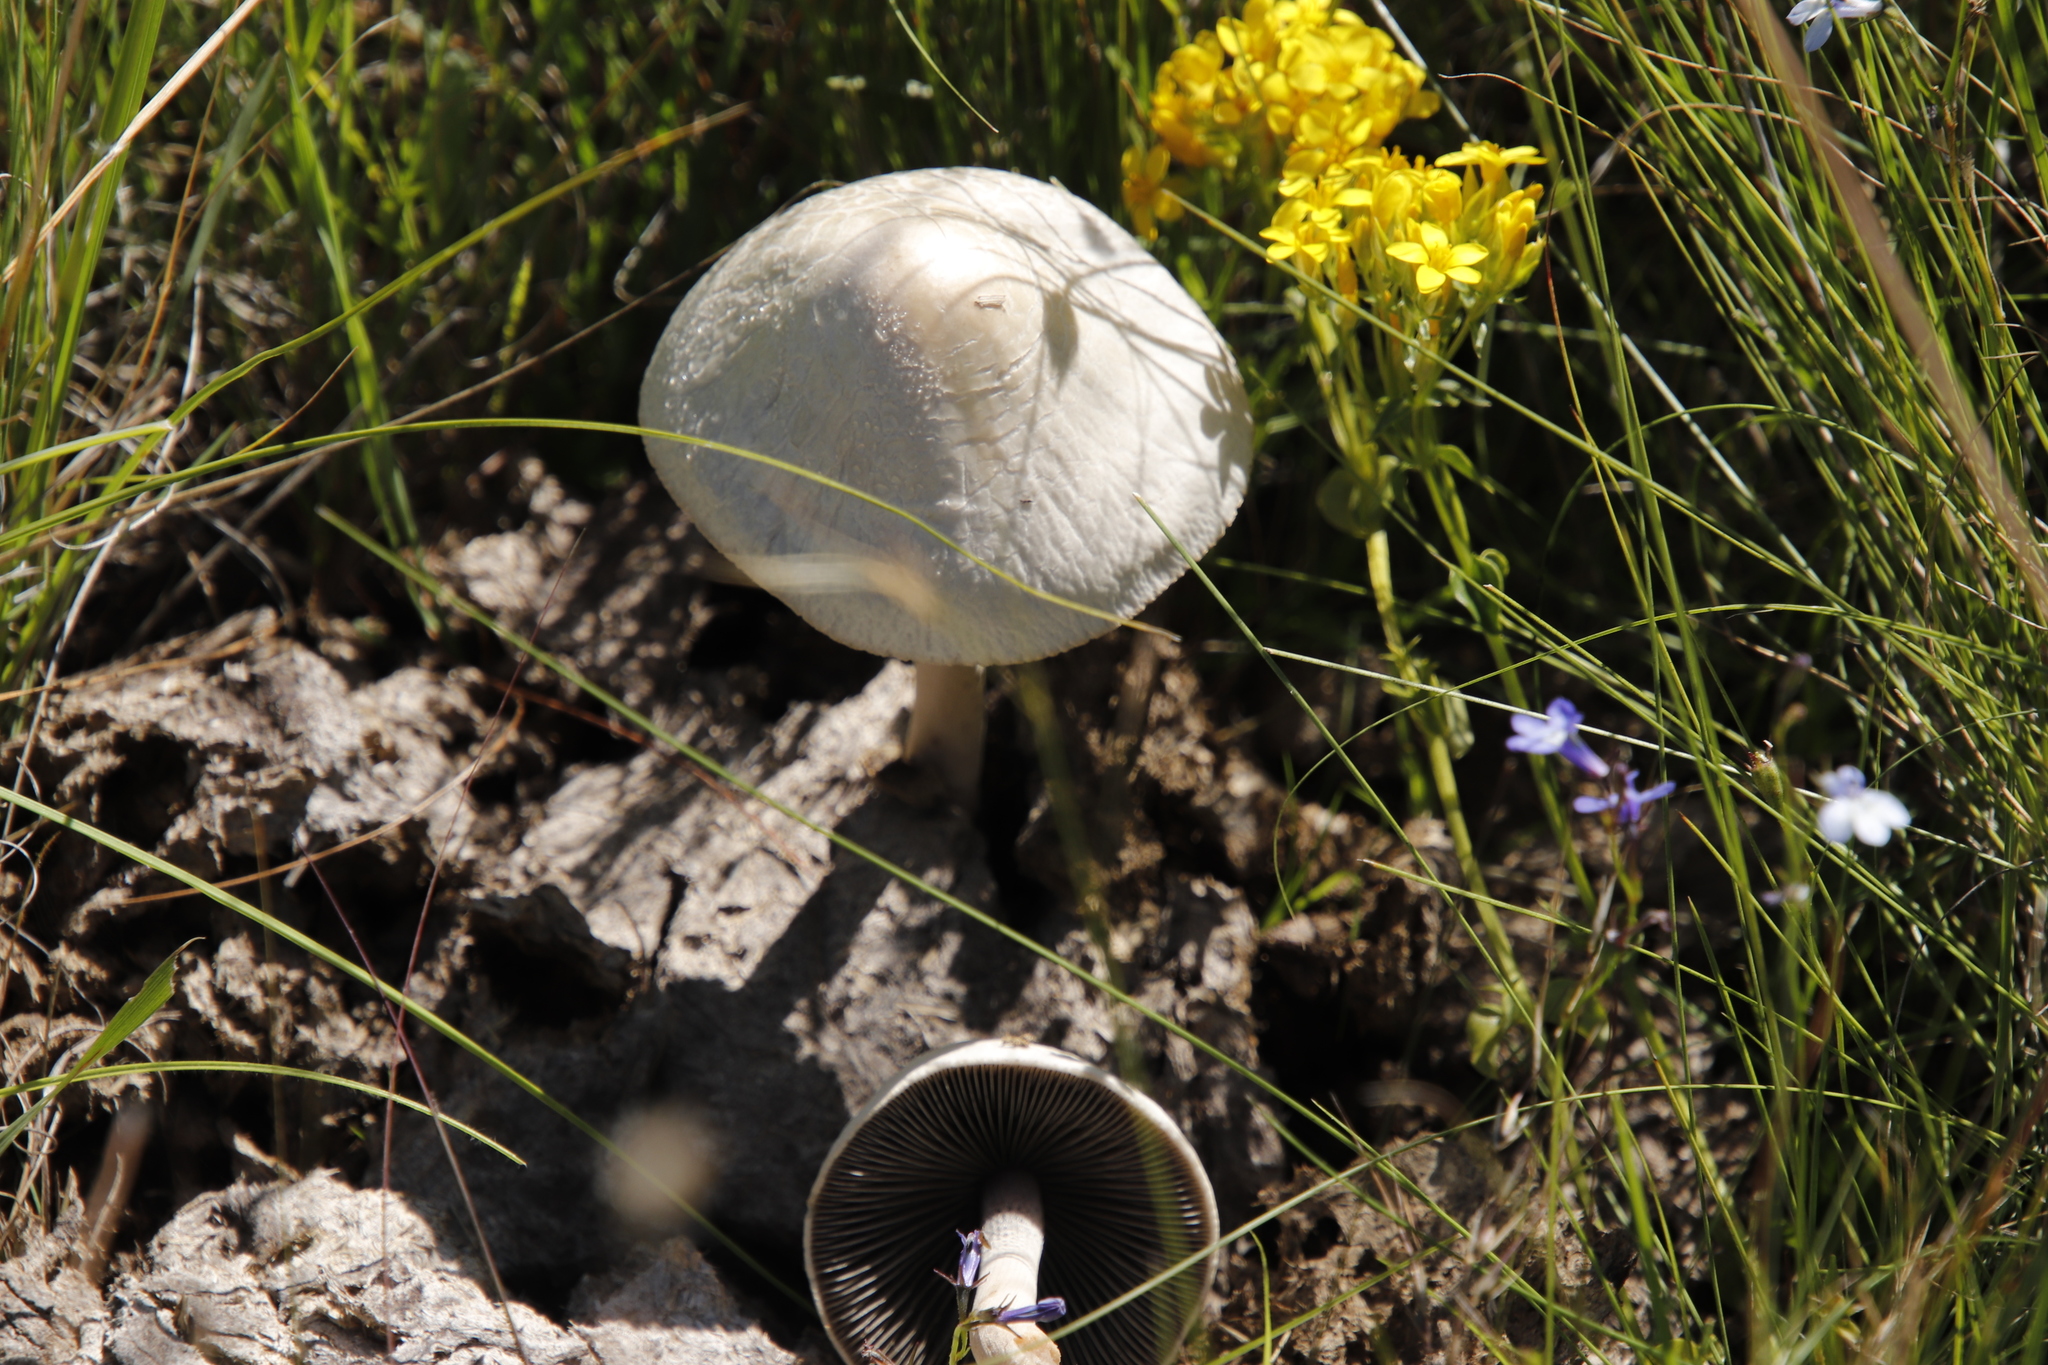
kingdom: Fungi
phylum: Basidiomycota
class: Agaricomycetes
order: Agaricales
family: Bolbitiaceae
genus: Panaeolus
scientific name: Panaeolus antillarum
